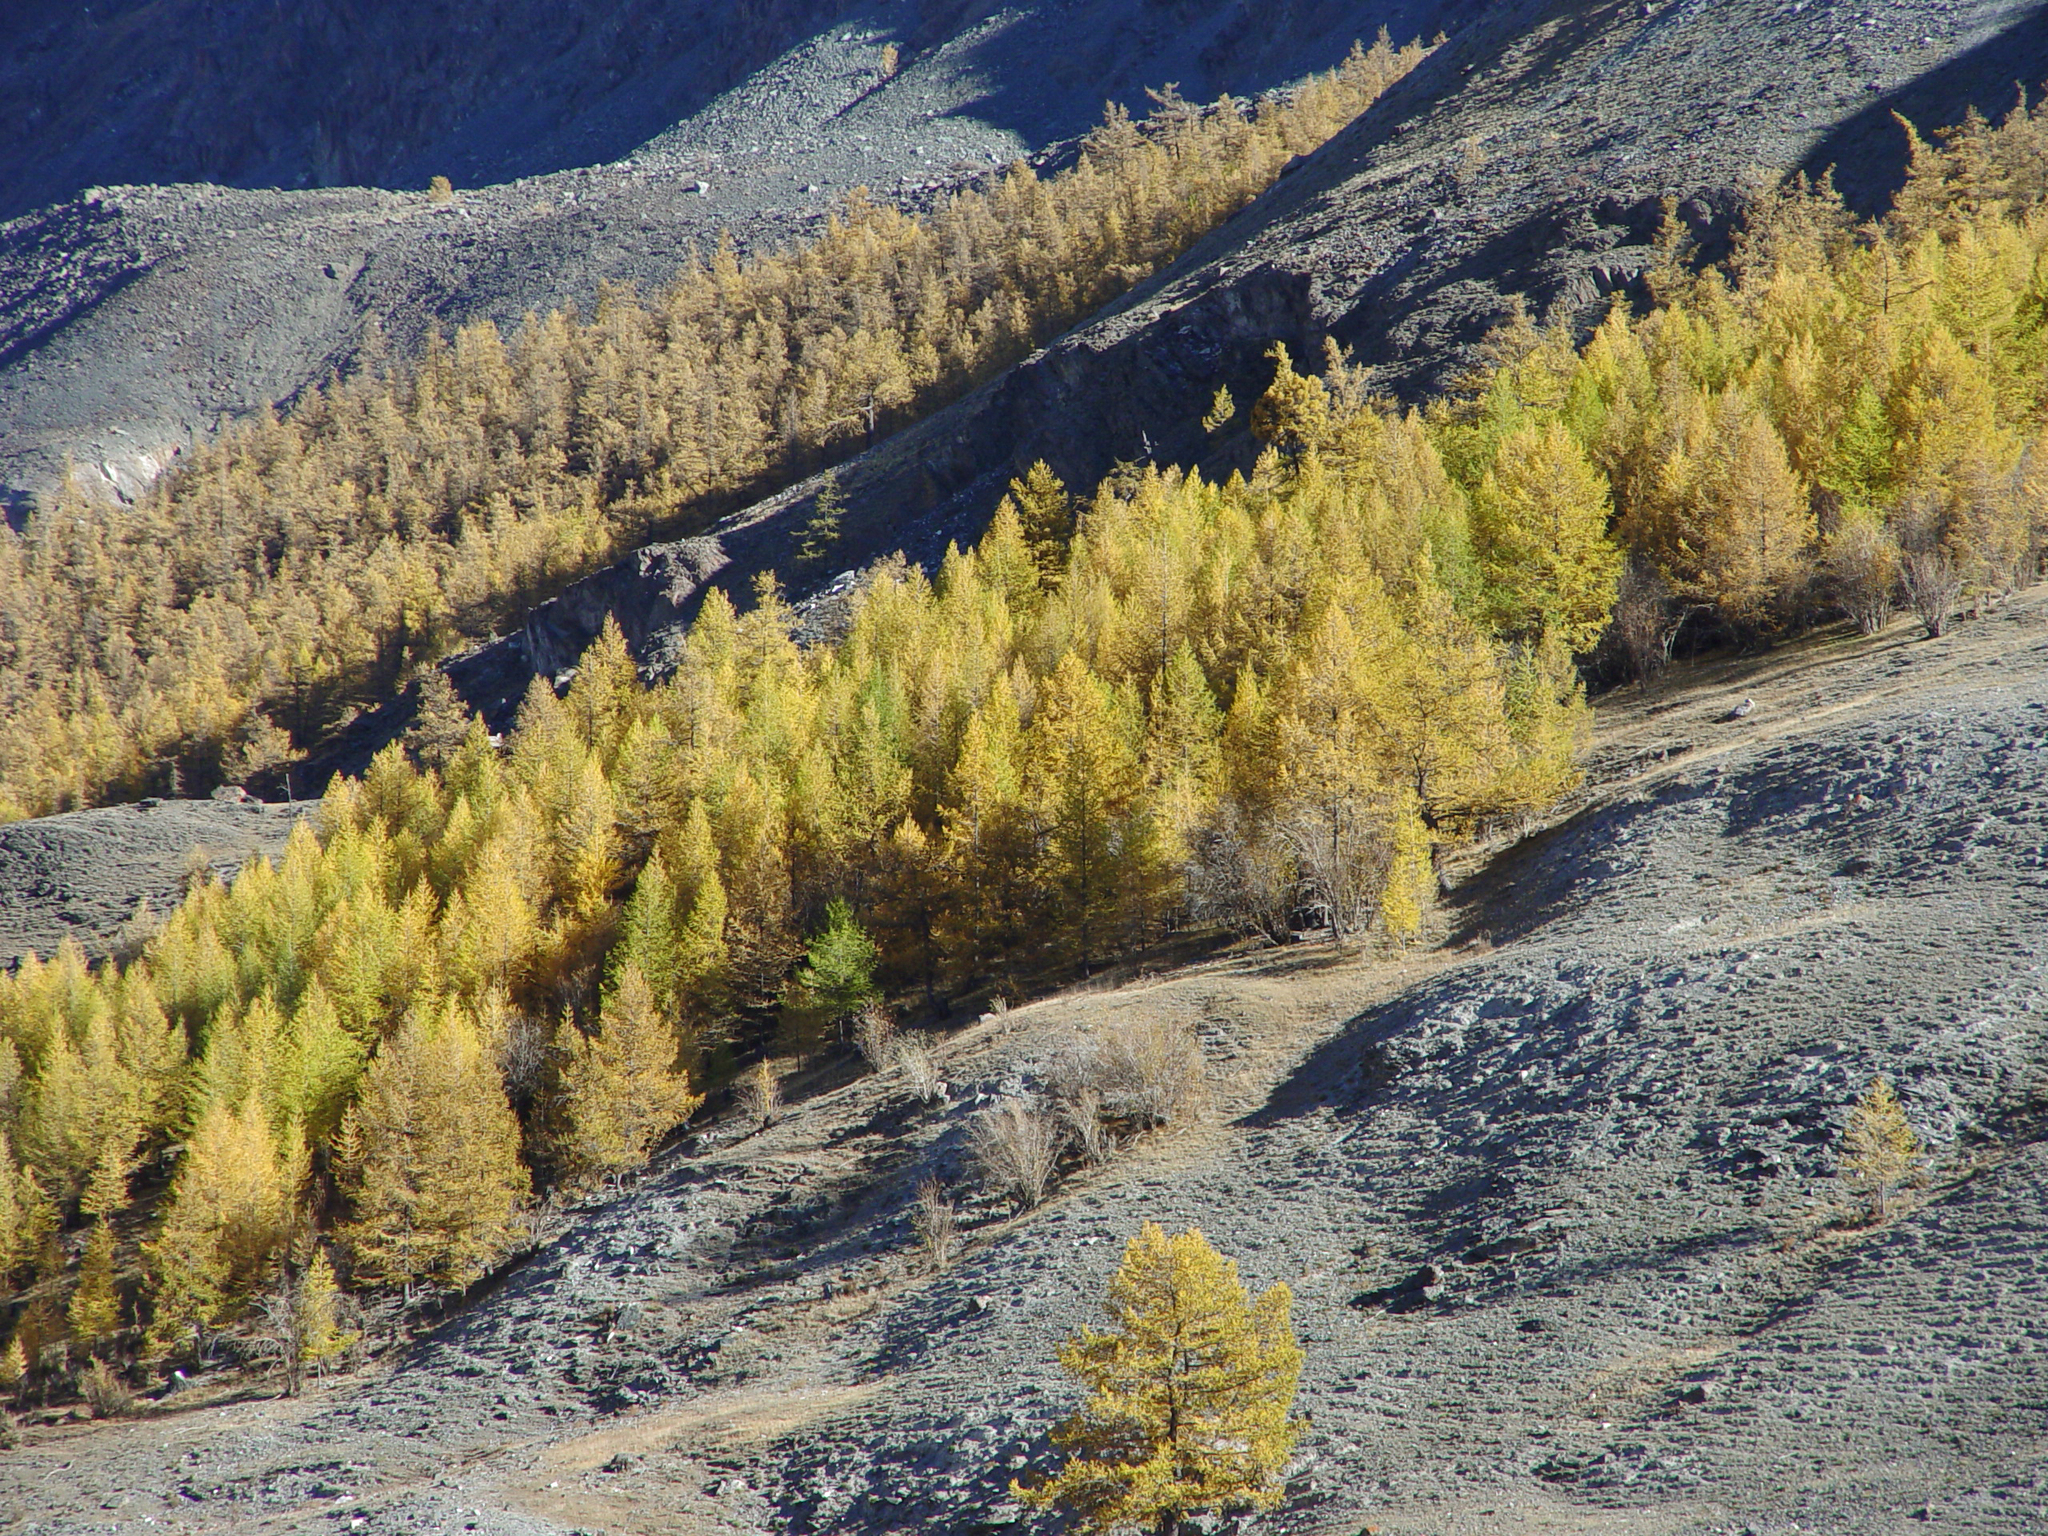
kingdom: Plantae
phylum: Tracheophyta
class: Pinopsida
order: Pinales
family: Pinaceae
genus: Larix
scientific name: Larix sibirica
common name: Siberian larch
